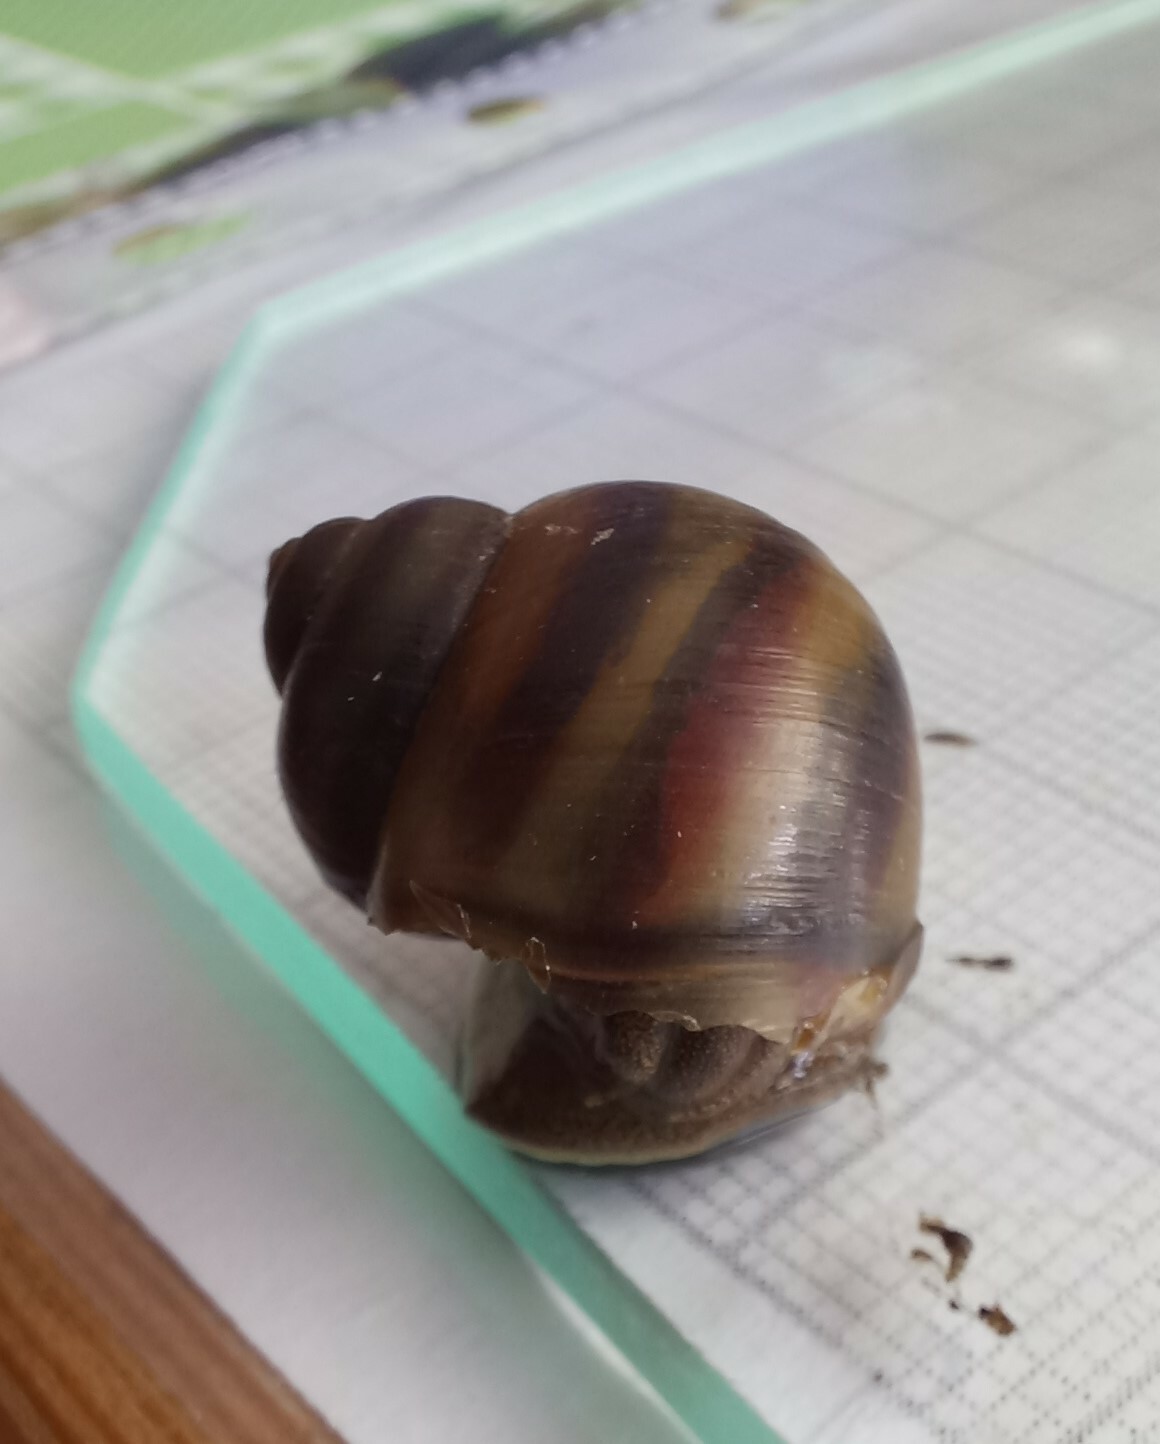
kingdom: Animalia
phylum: Mollusca
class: Gastropoda
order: Architaenioglossa
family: Viviparidae
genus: Viviparus
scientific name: Viviparus viviparus
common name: River snail
